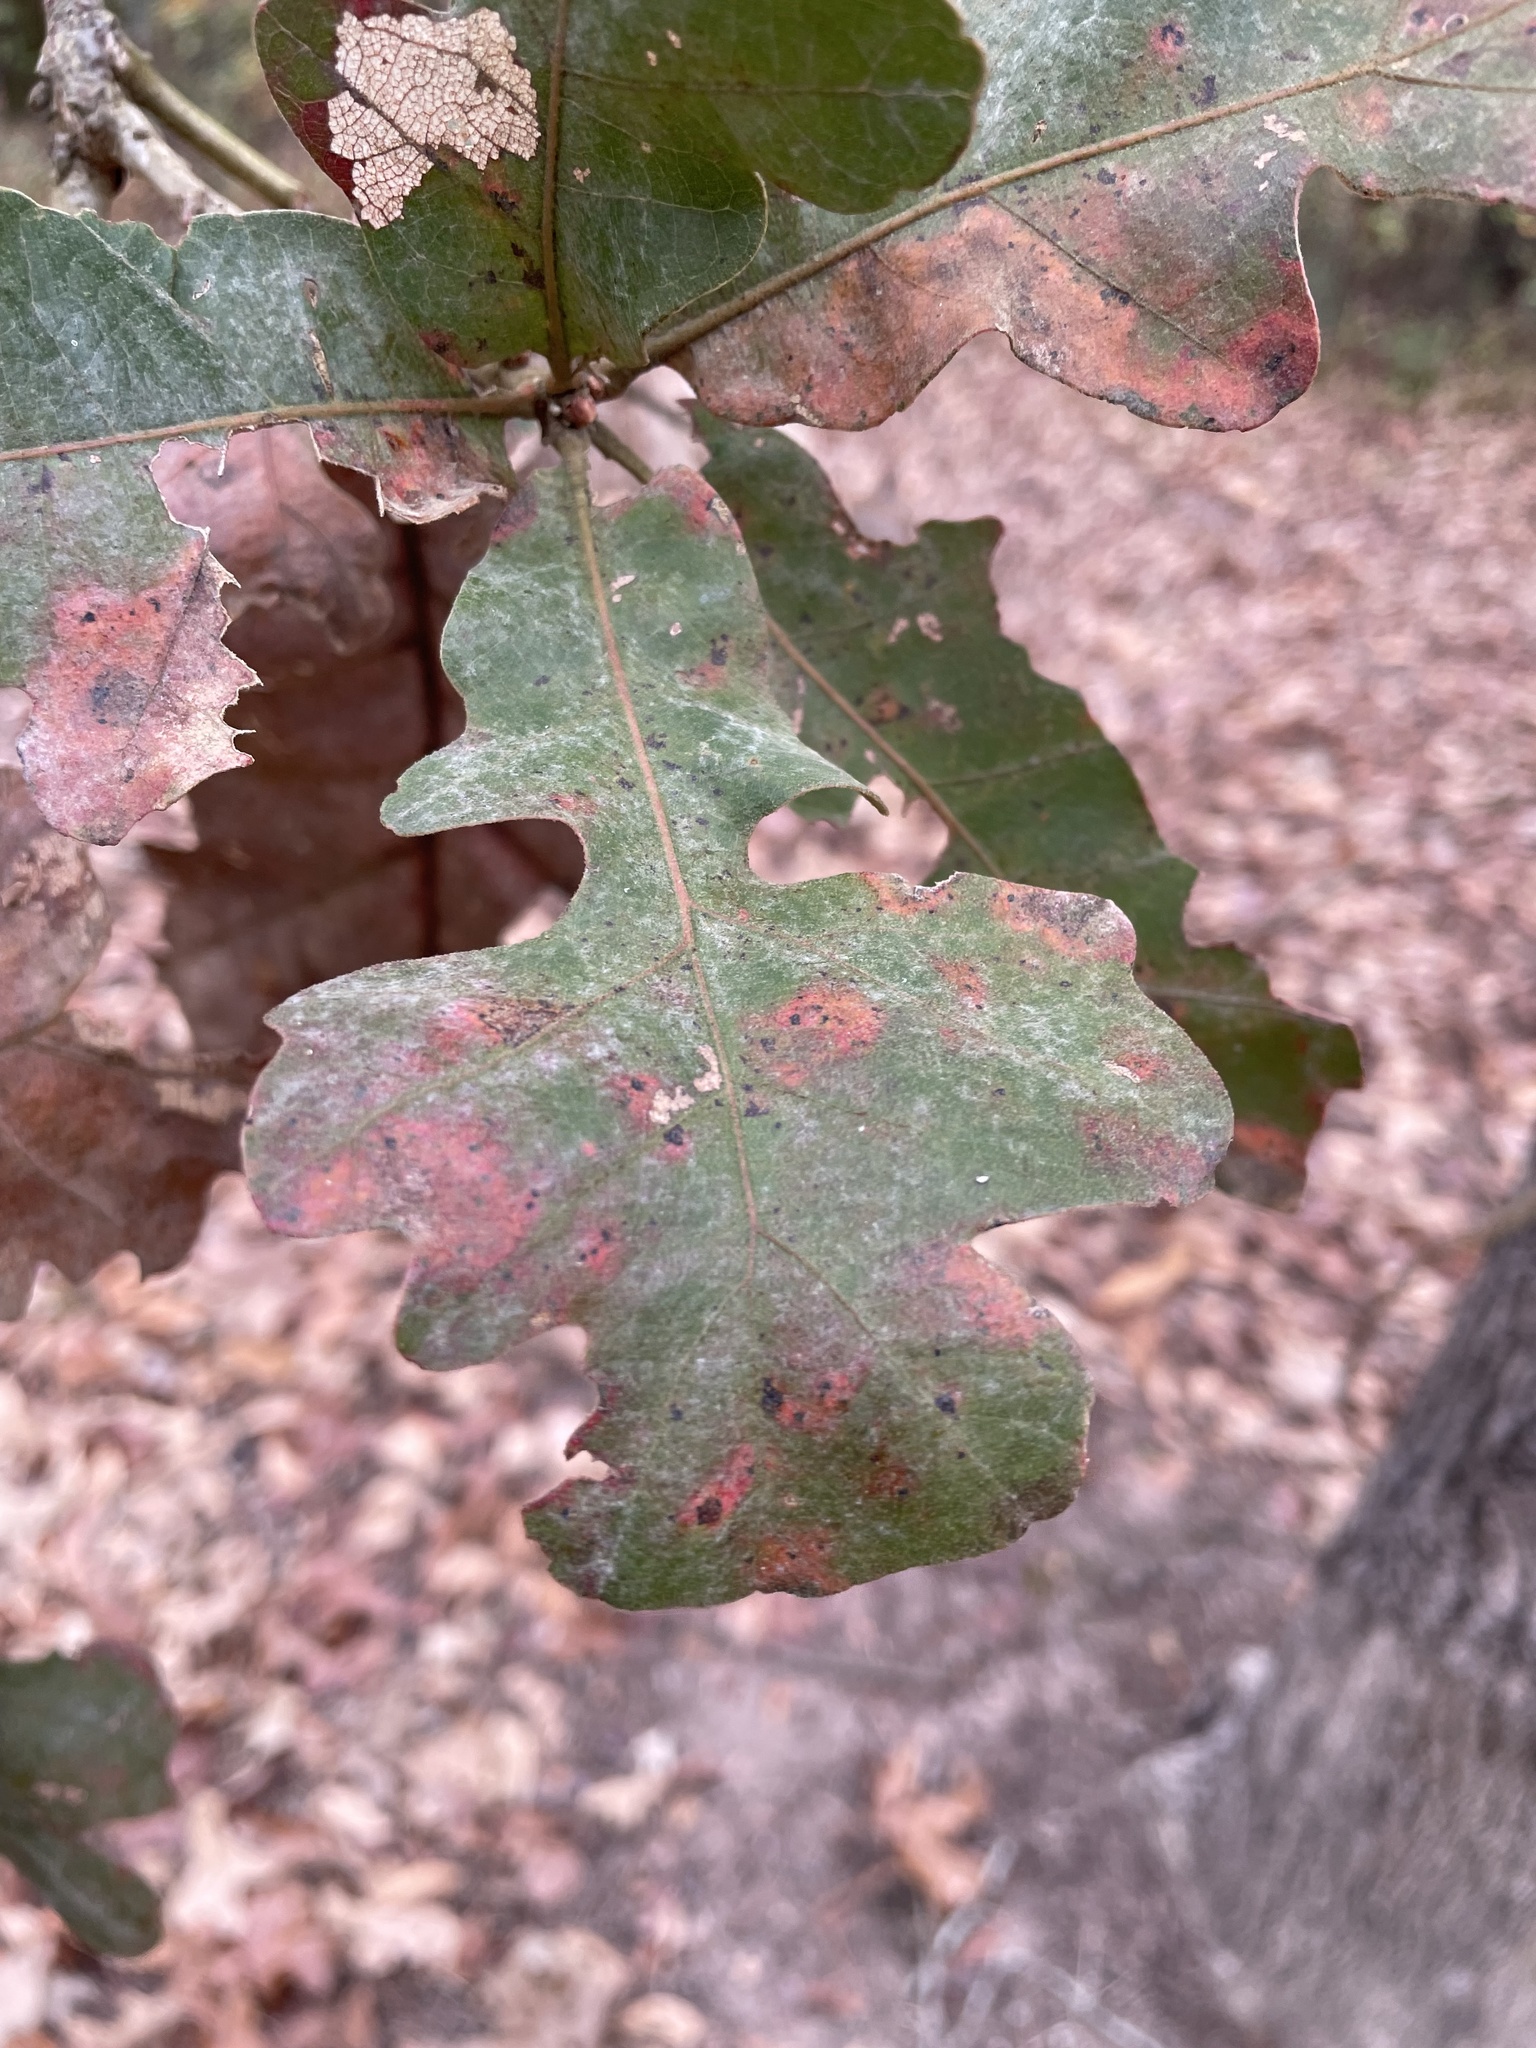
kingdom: Plantae
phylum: Tracheophyta
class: Magnoliopsida
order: Fagales
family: Fagaceae
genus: Quercus
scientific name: Quercus stellata
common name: Post oak
